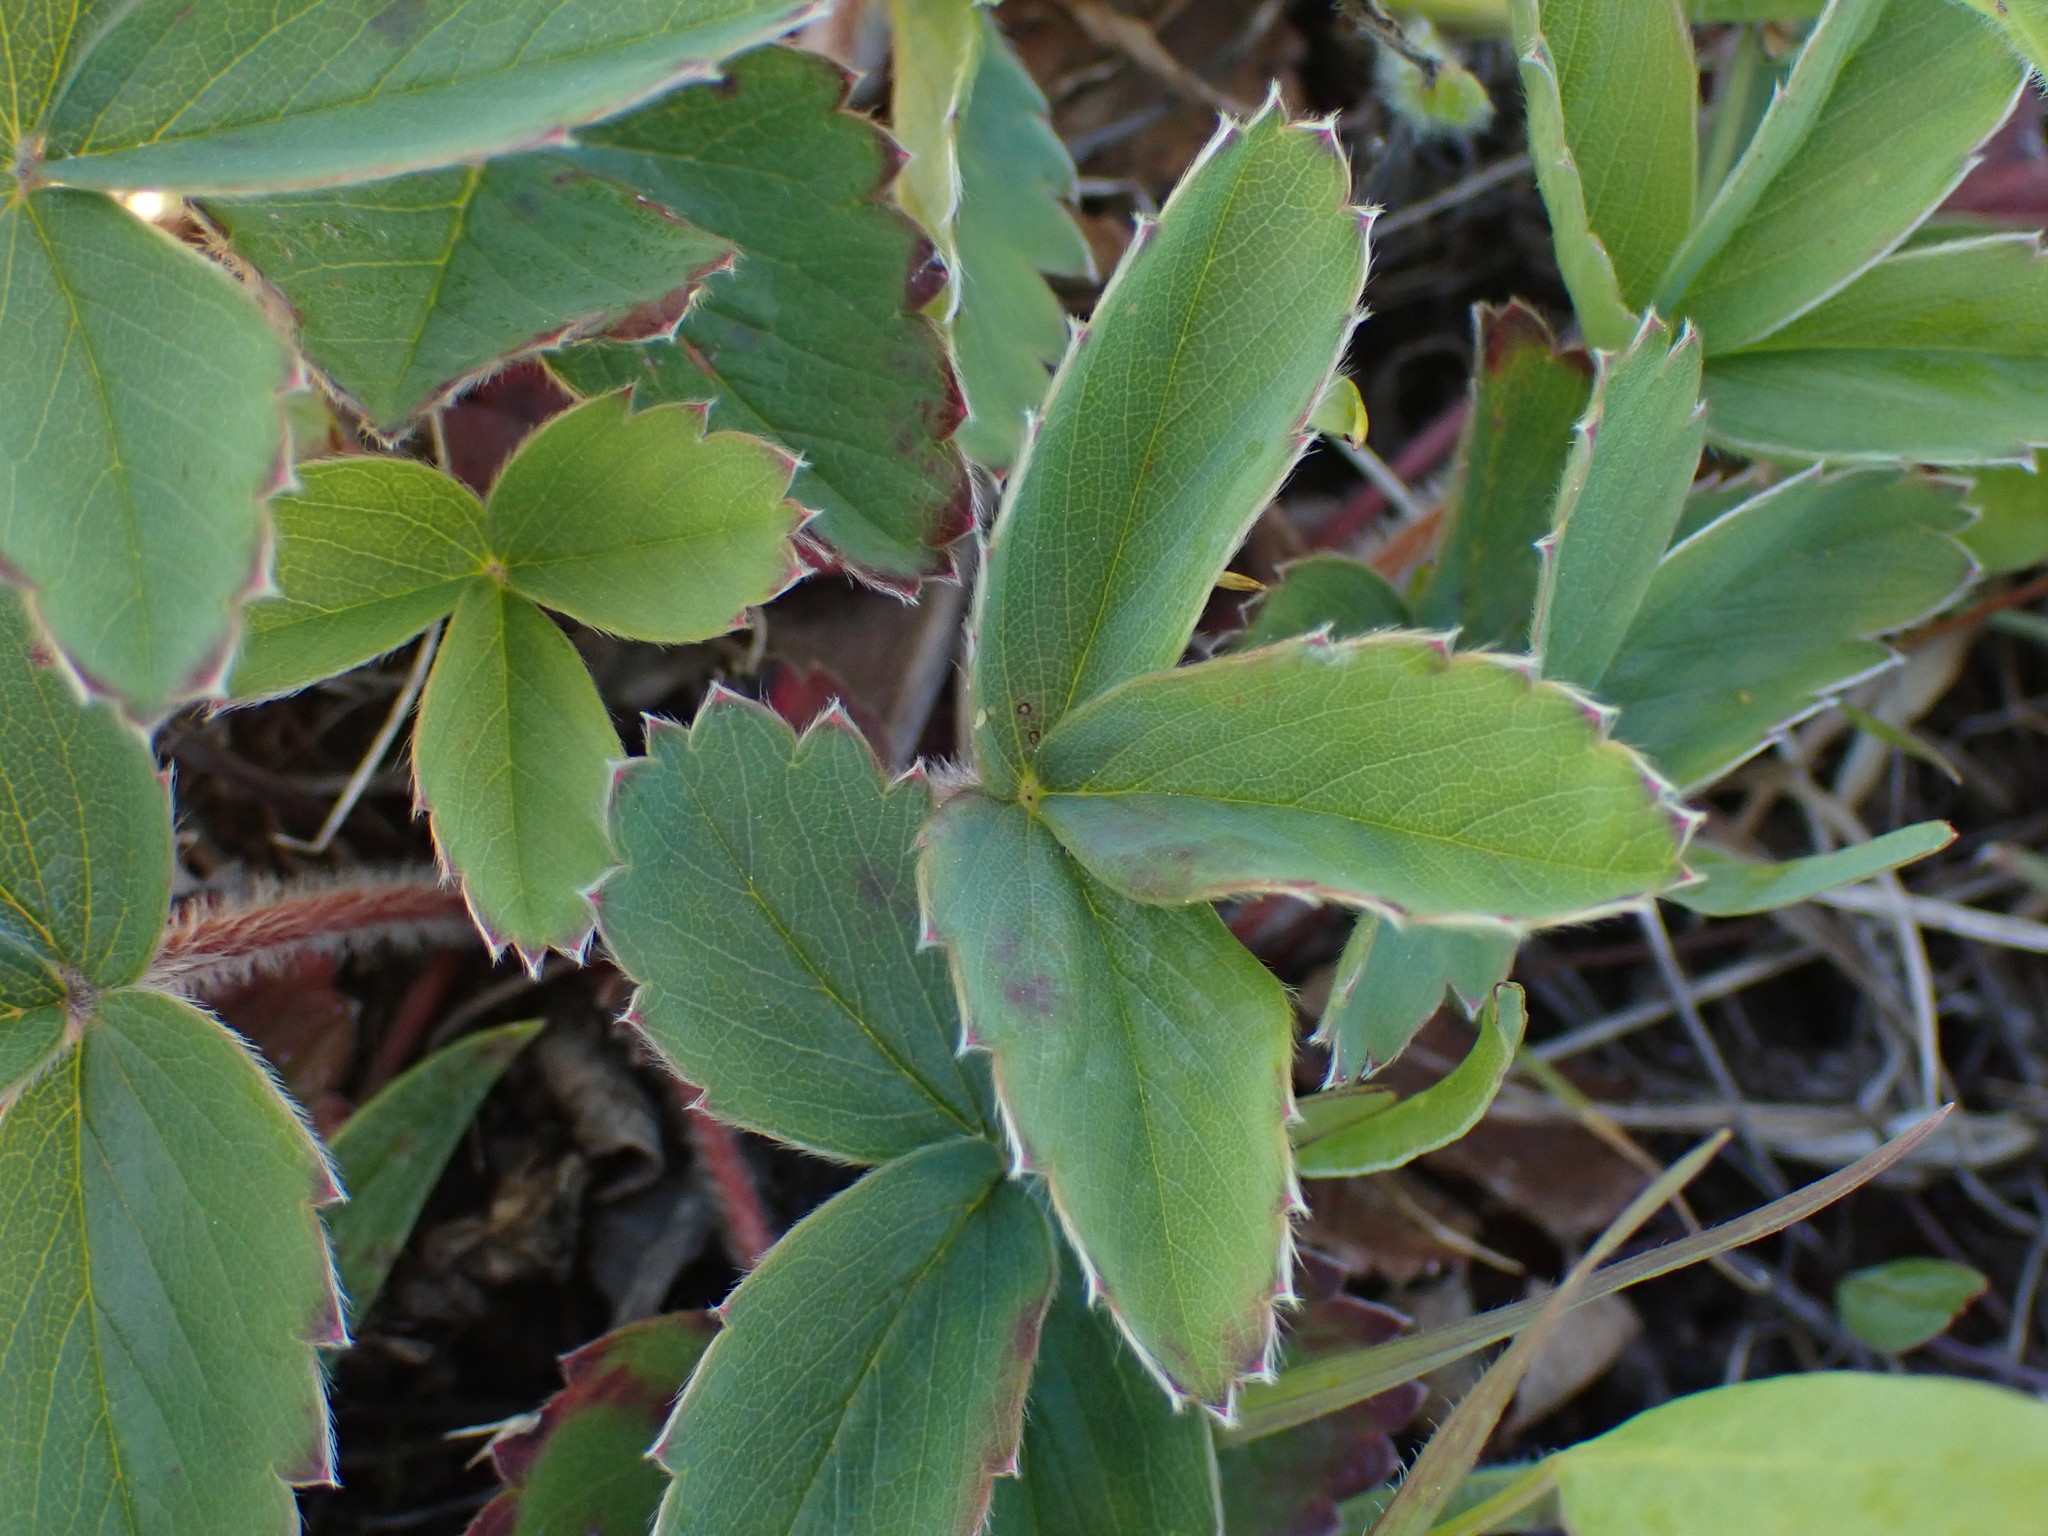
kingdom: Plantae
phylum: Tracheophyta
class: Magnoliopsida
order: Rosales
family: Rosaceae
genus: Fragaria
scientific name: Fragaria virginiana
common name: Thickleaved wild strawberry
